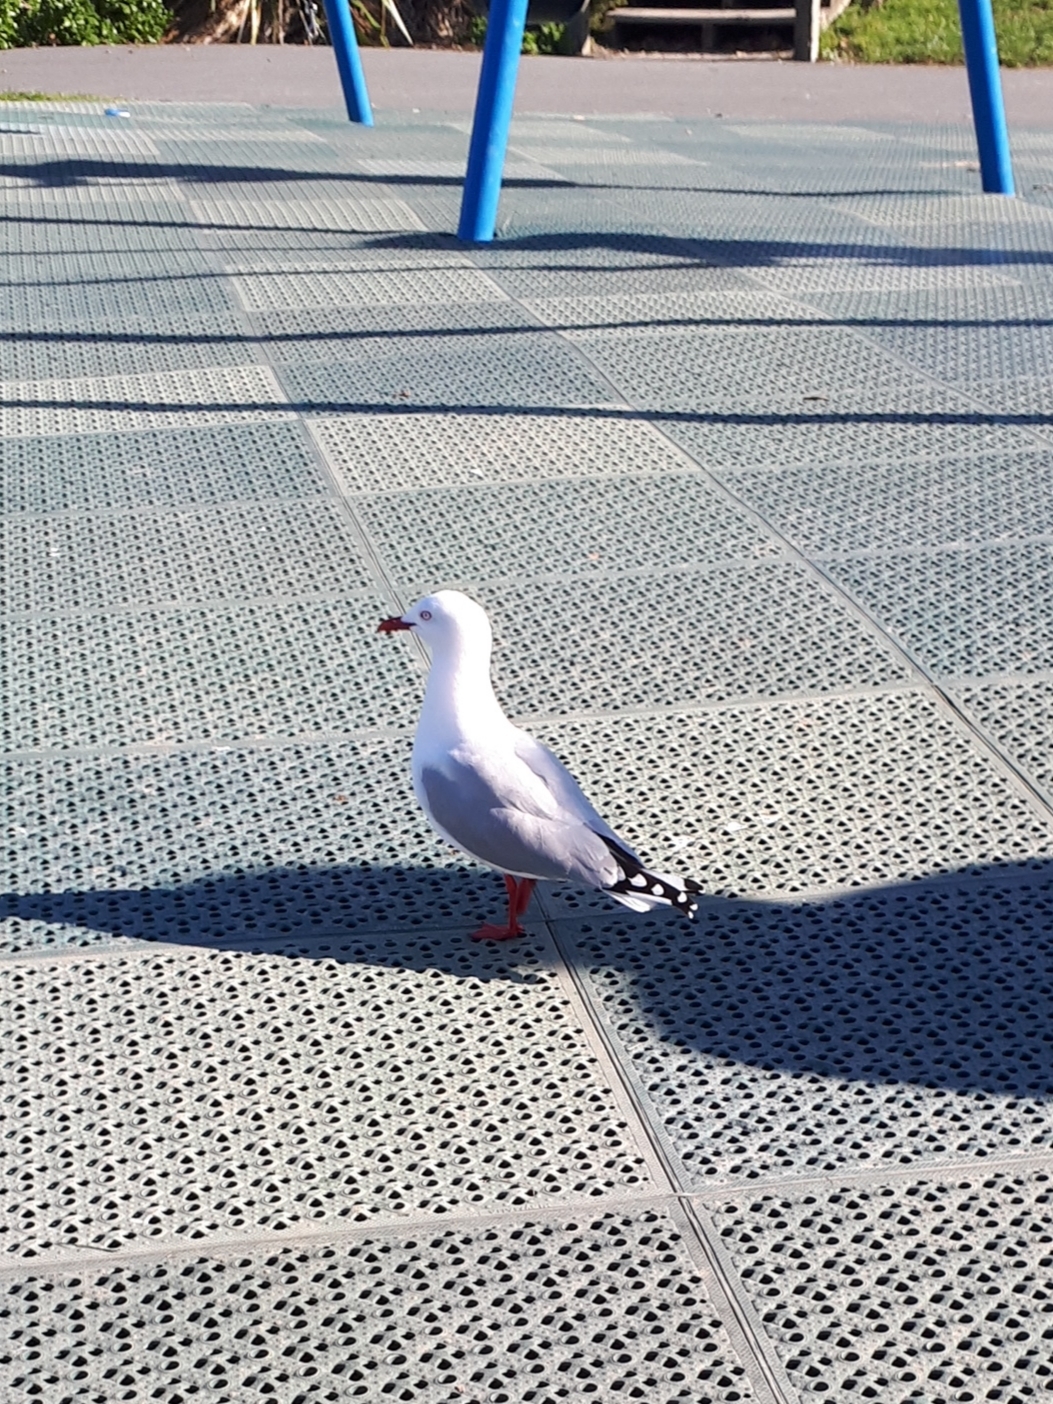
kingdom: Animalia
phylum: Chordata
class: Aves
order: Charadriiformes
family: Laridae
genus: Chroicocephalus
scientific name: Chroicocephalus novaehollandiae
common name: Silver gull
